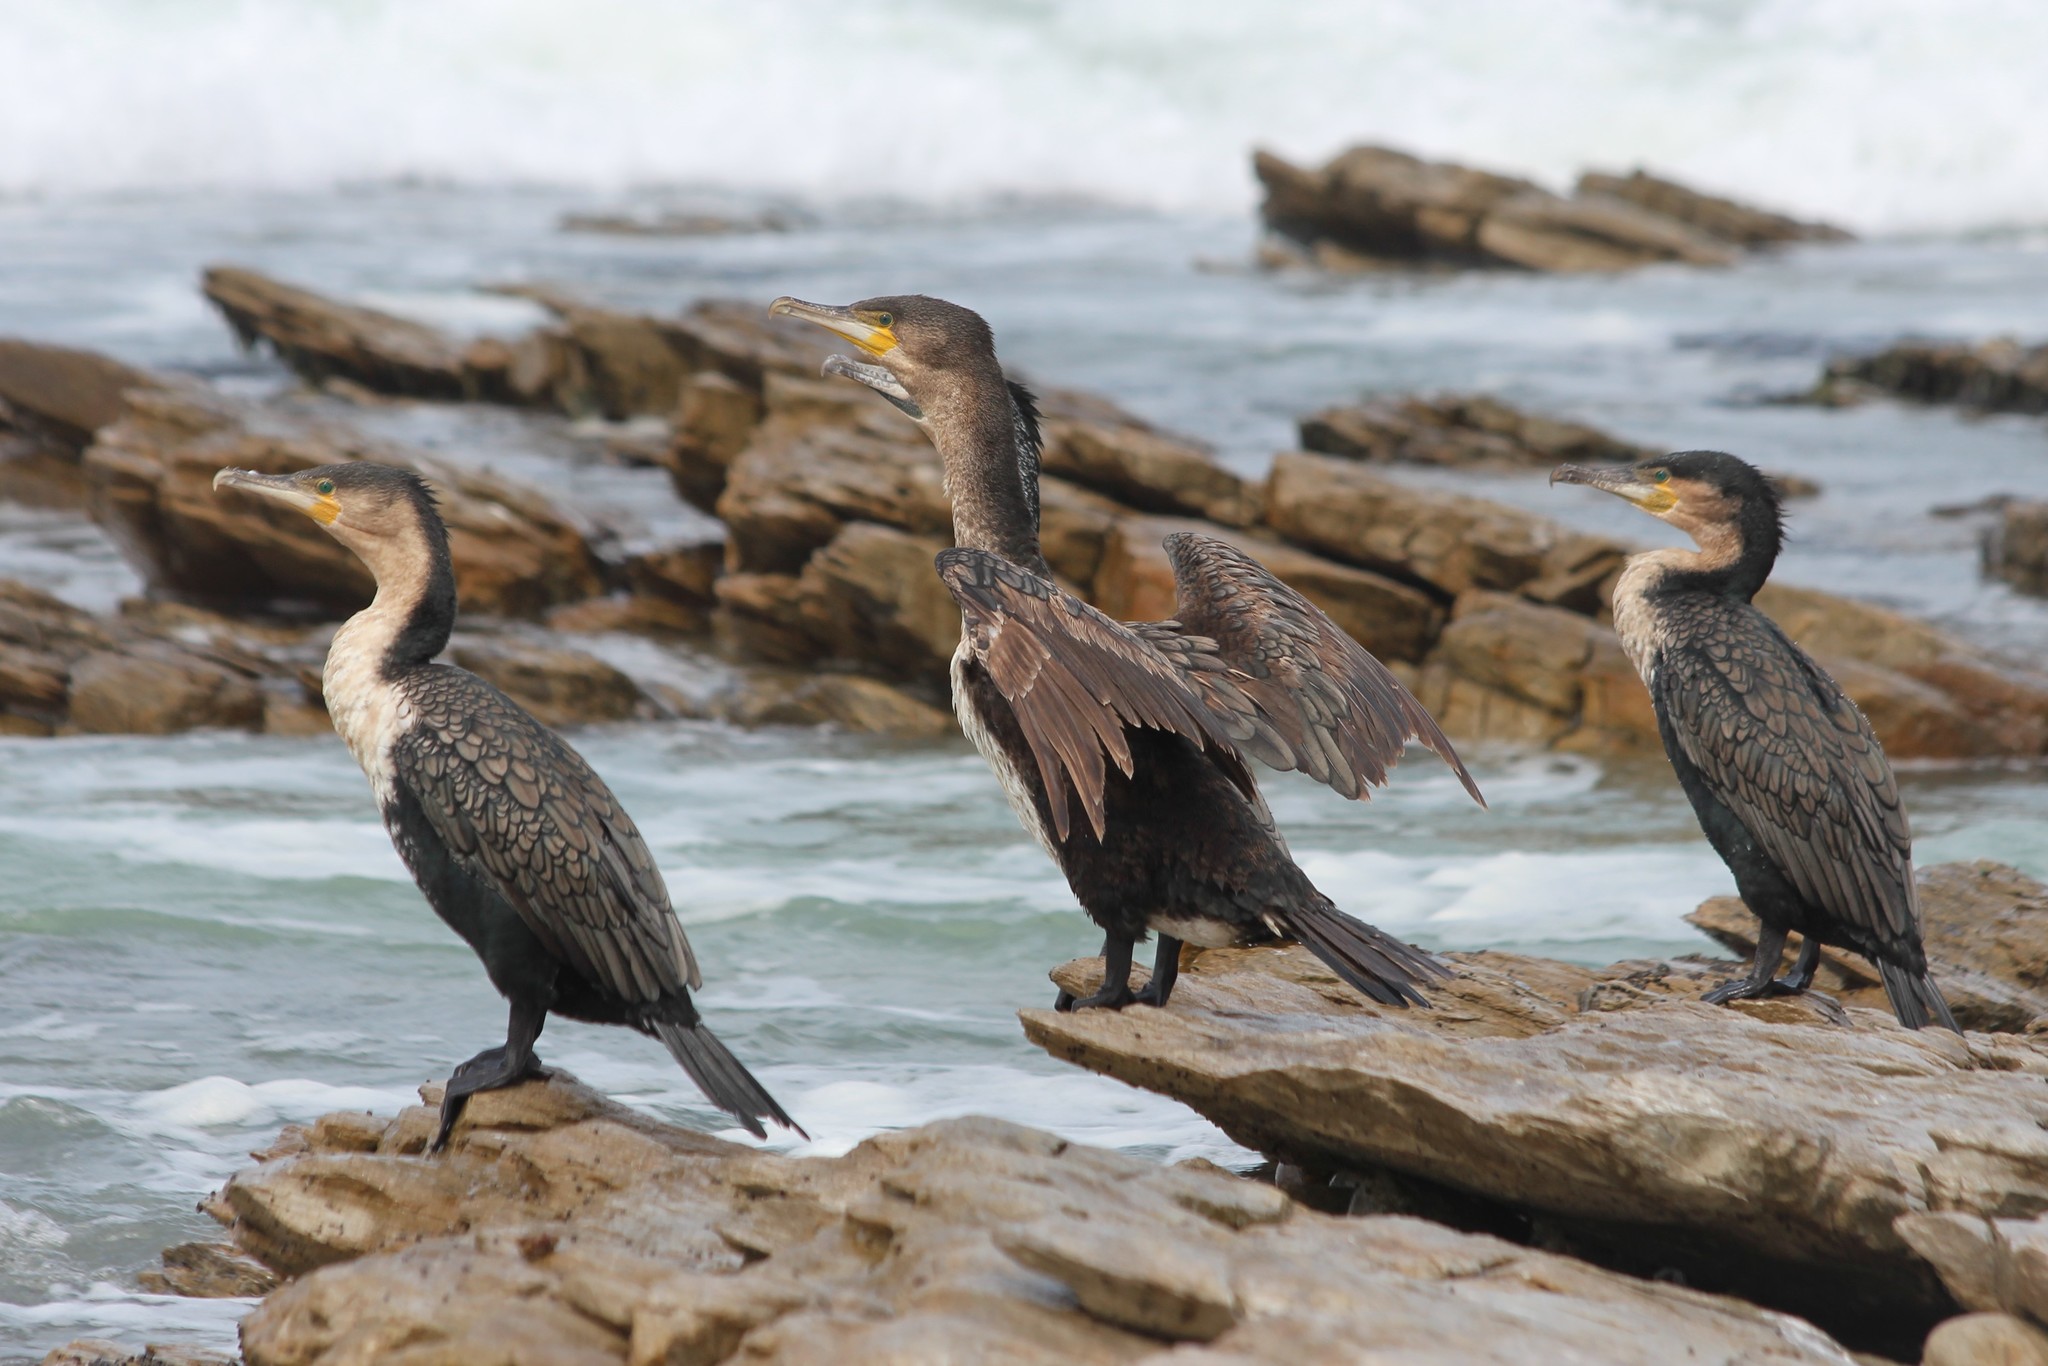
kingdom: Animalia
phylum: Chordata
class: Aves
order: Suliformes
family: Phalacrocoracidae
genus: Phalacrocorax
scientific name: Phalacrocorax carbo
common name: Great cormorant
